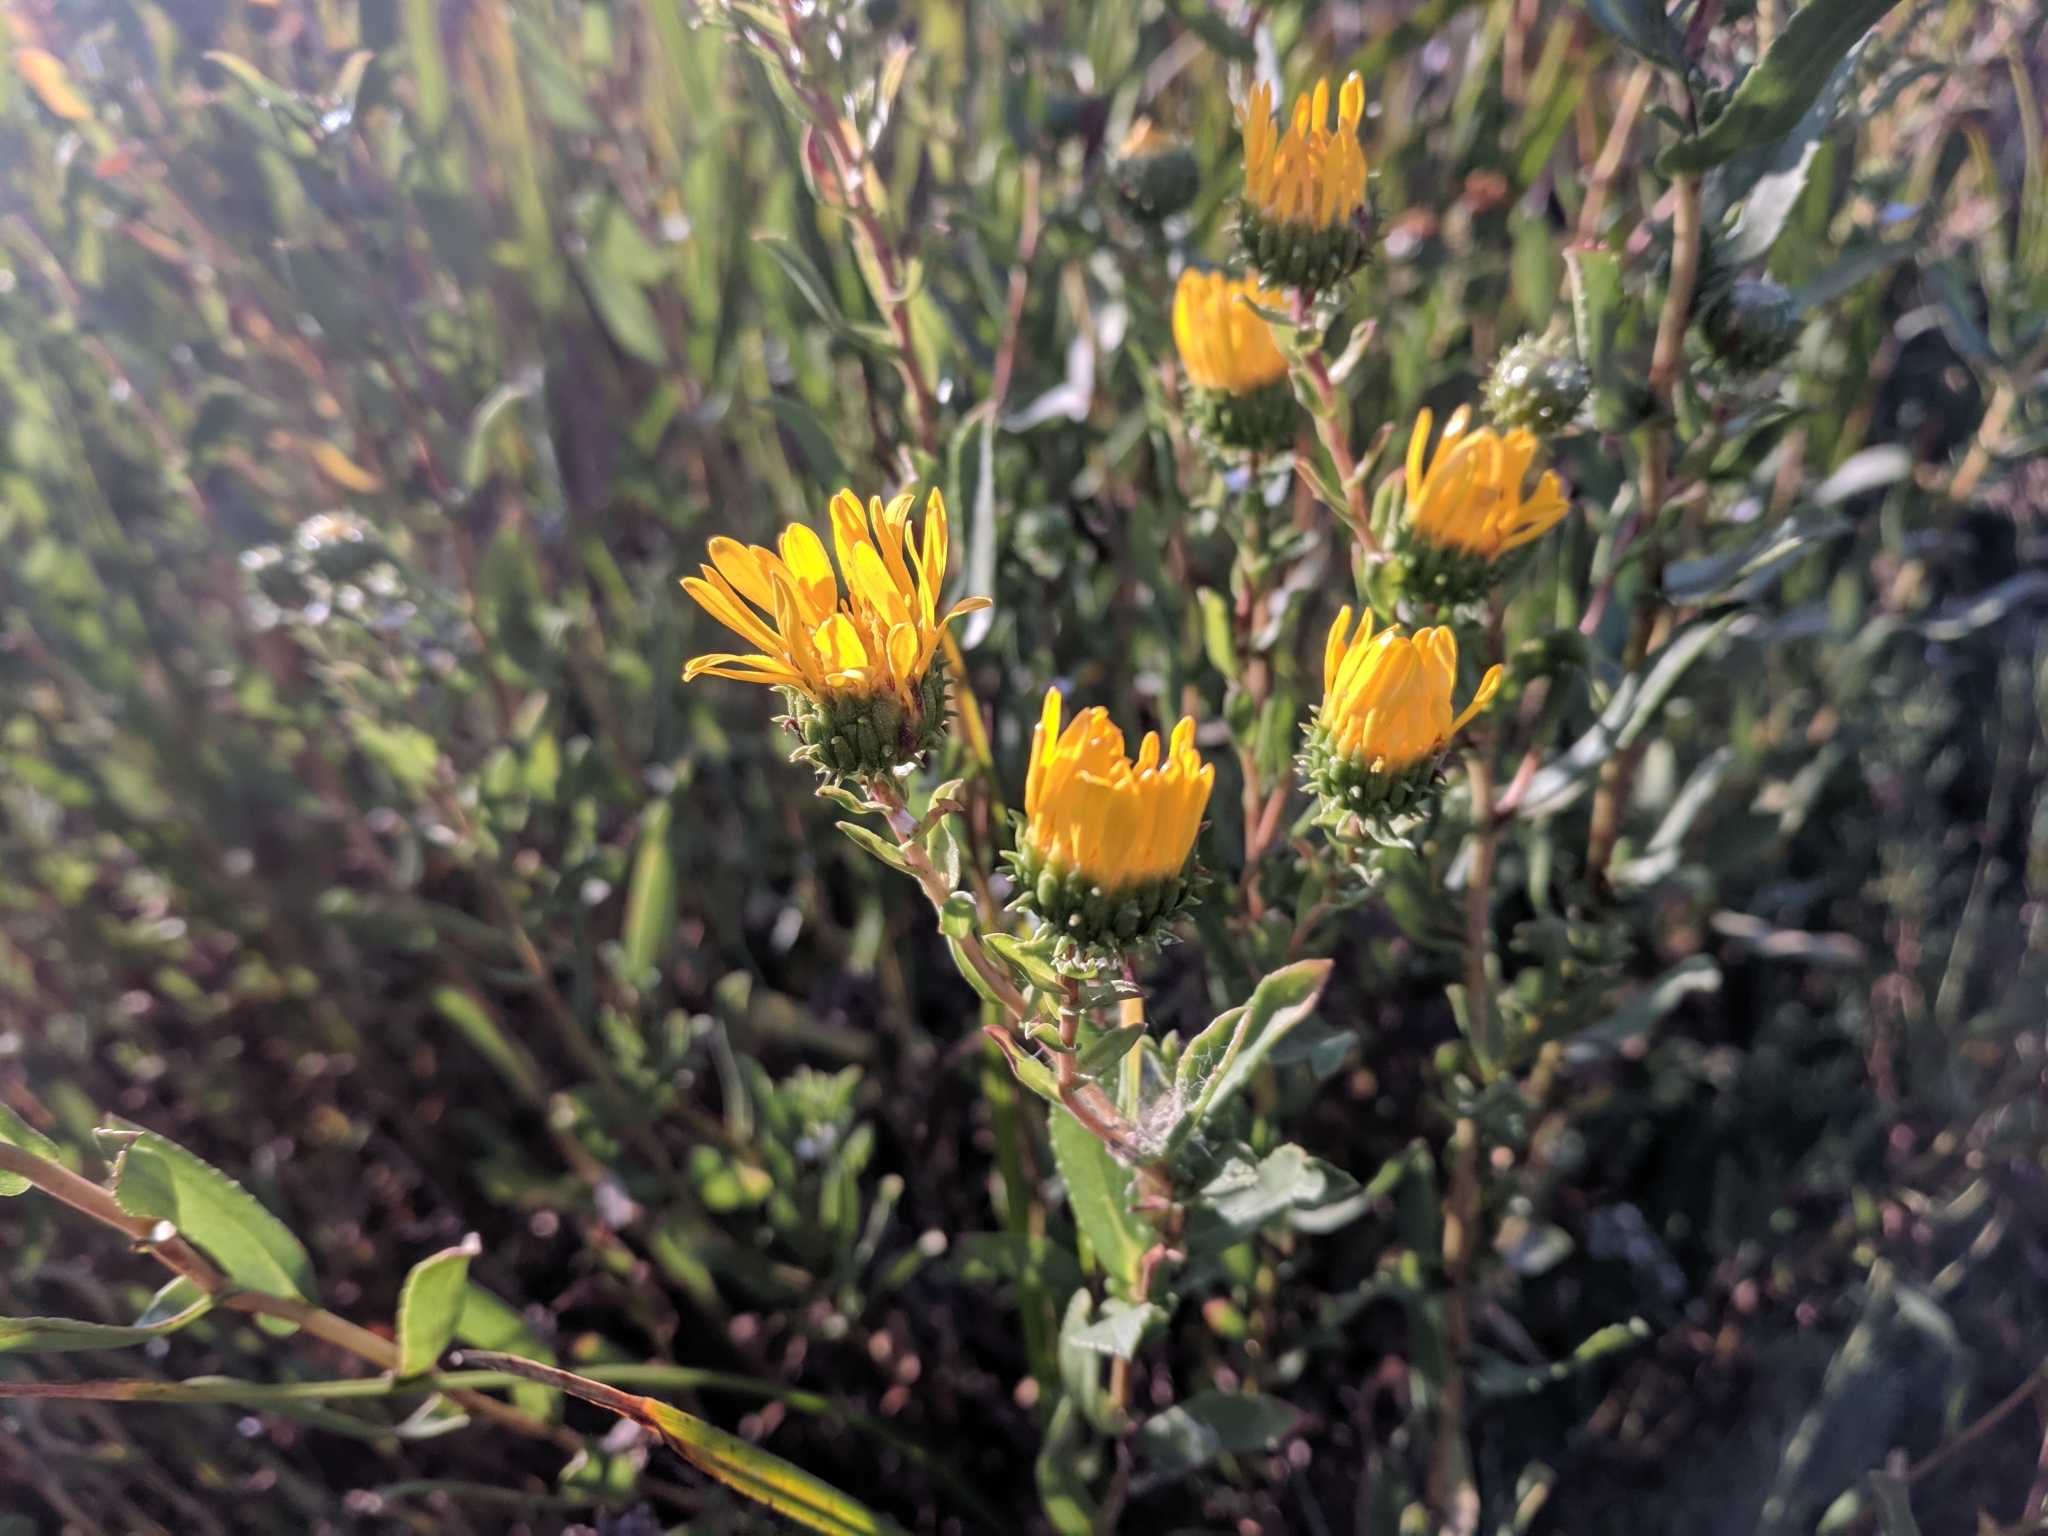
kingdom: Plantae
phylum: Tracheophyta
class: Magnoliopsida
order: Asterales
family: Asteraceae
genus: Grindelia
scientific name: Grindelia hirsutula
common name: Hairy gumweed
